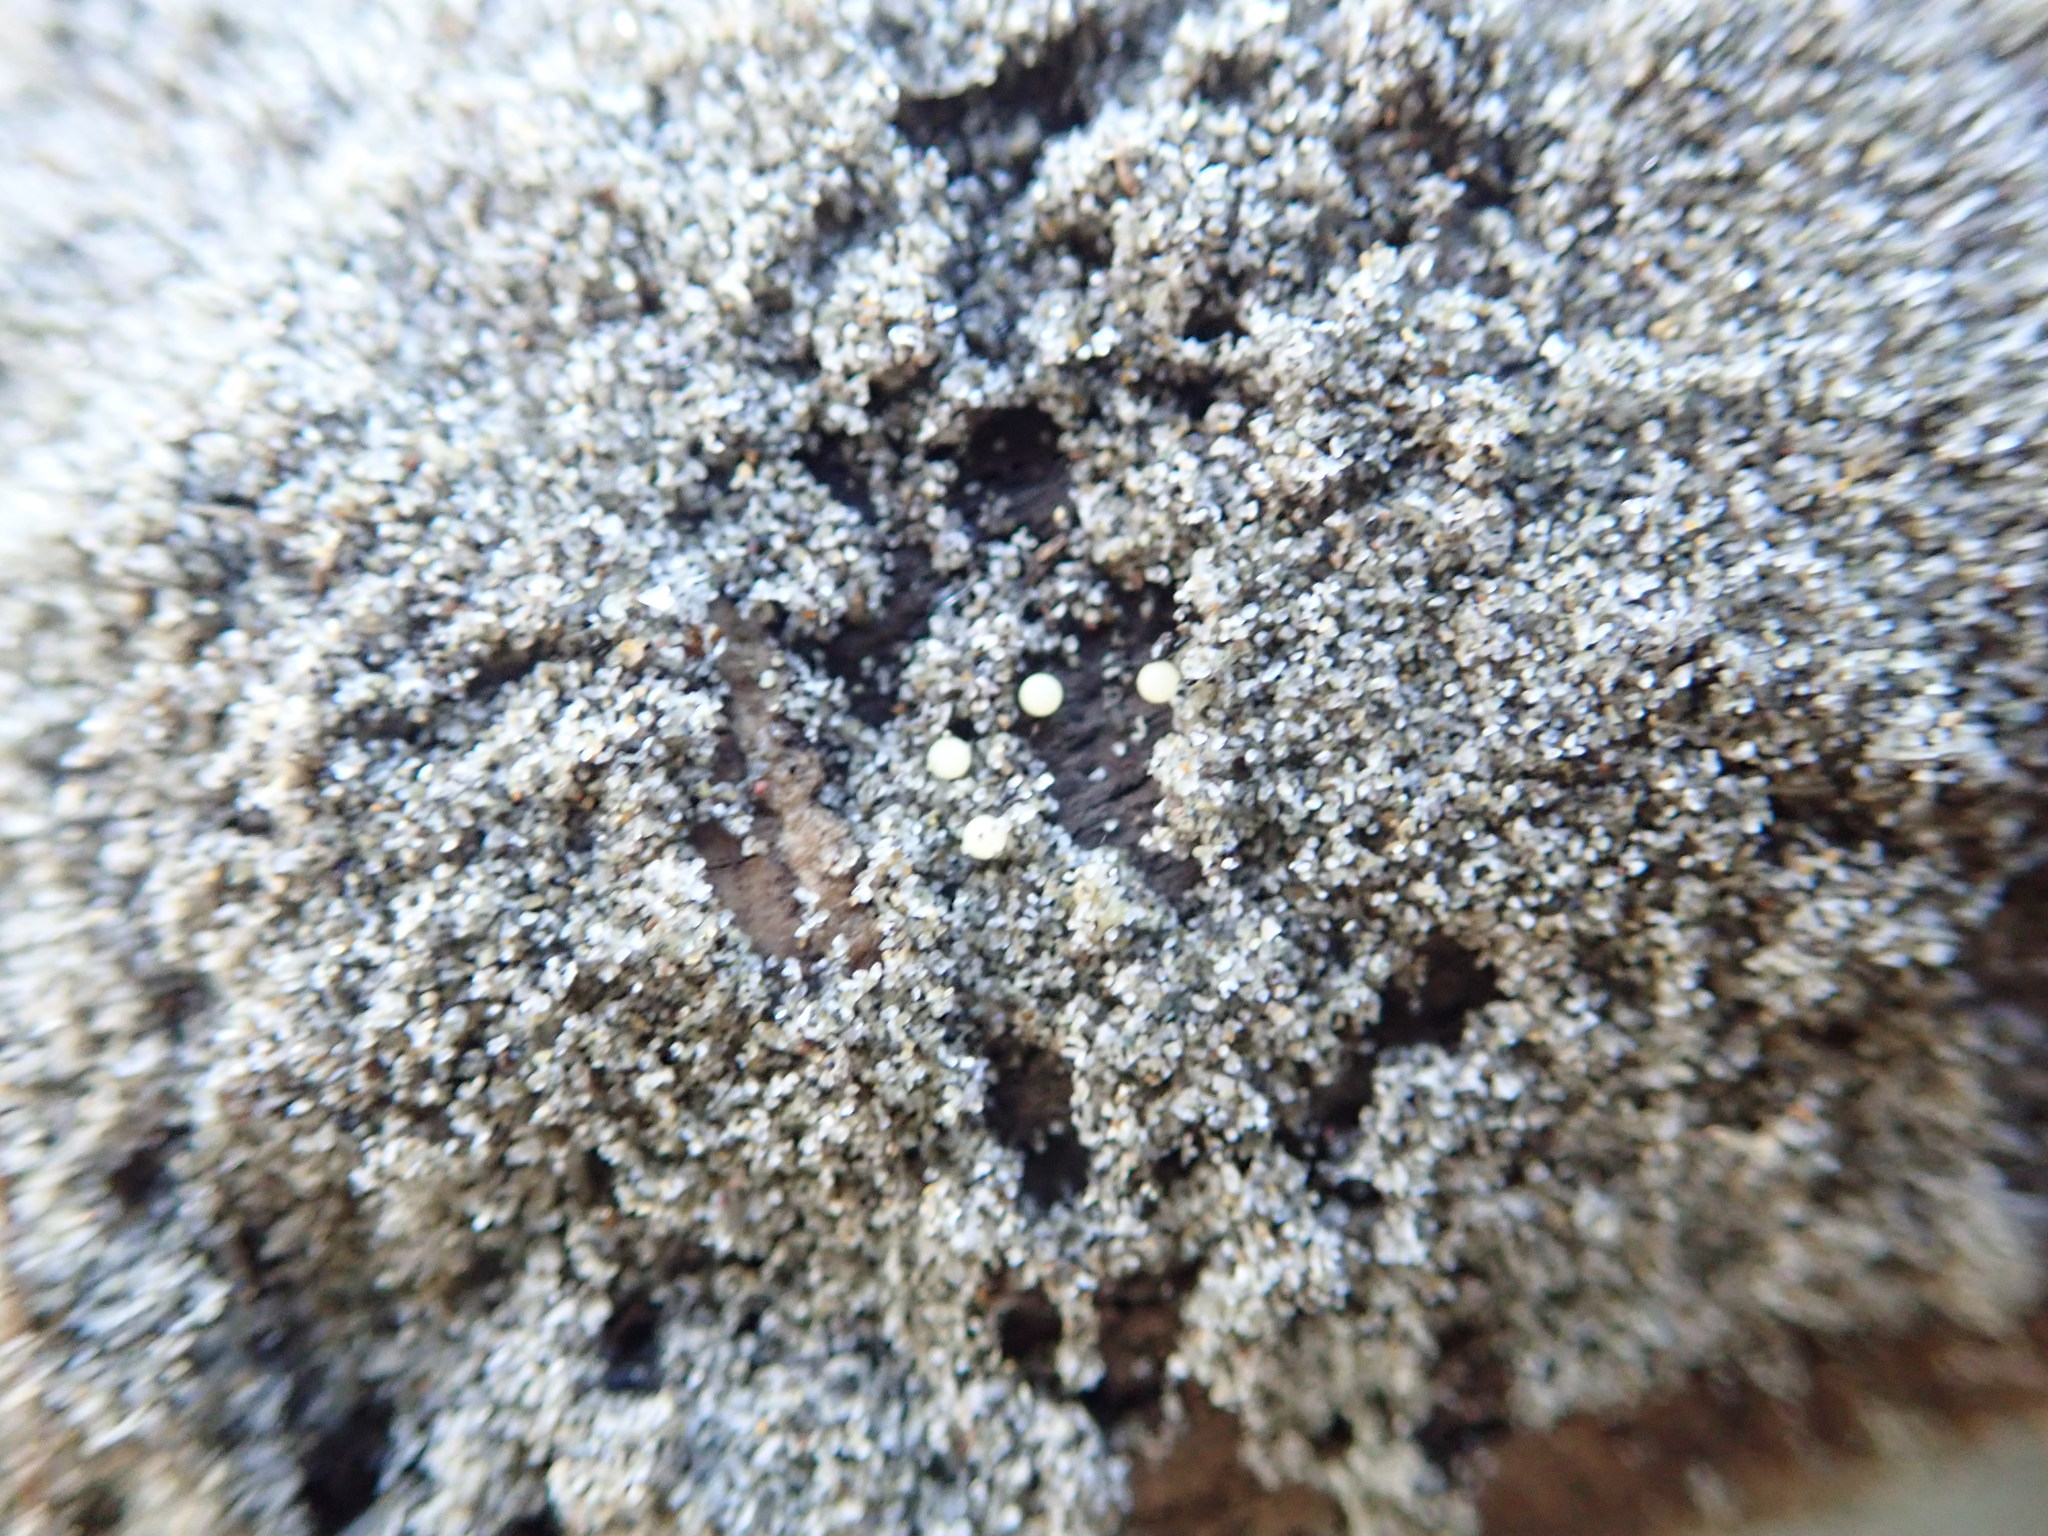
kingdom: Animalia
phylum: Arthropoda
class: Arachnida
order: Araneae
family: Theridiidae
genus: Steatoda
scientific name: Steatoda lepida
